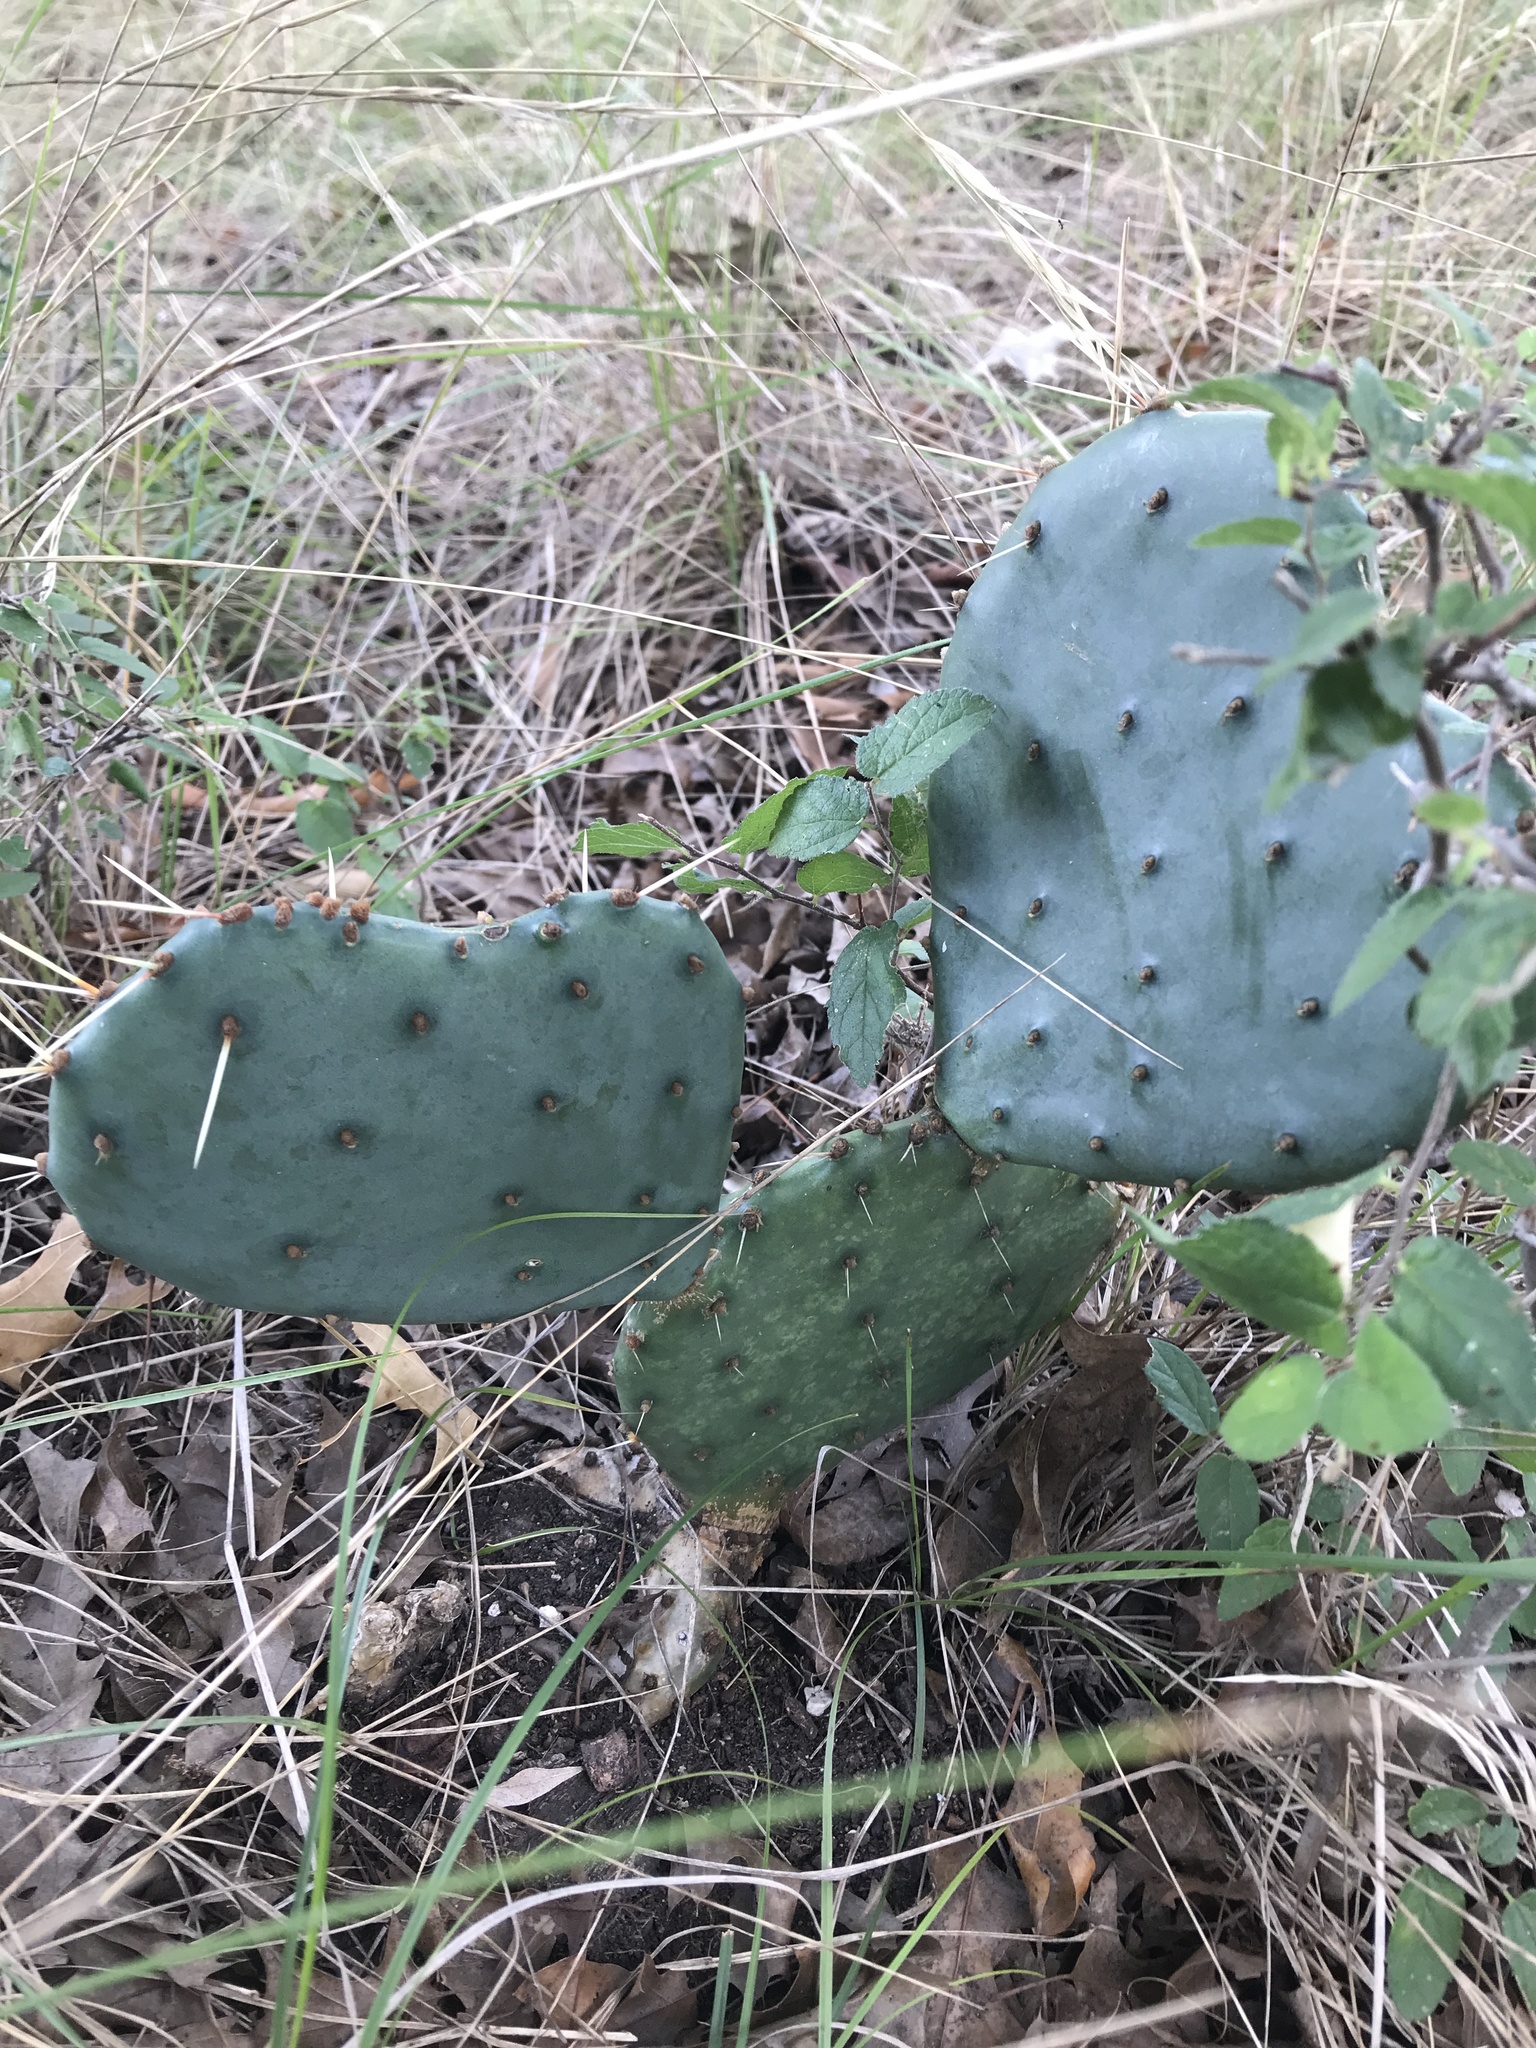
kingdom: Plantae
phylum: Tracheophyta
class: Magnoliopsida
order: Caryophyllales
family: Cactaceae
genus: Opuntia
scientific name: Opuntia phaeacantha
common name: New mexico prickly-pear
